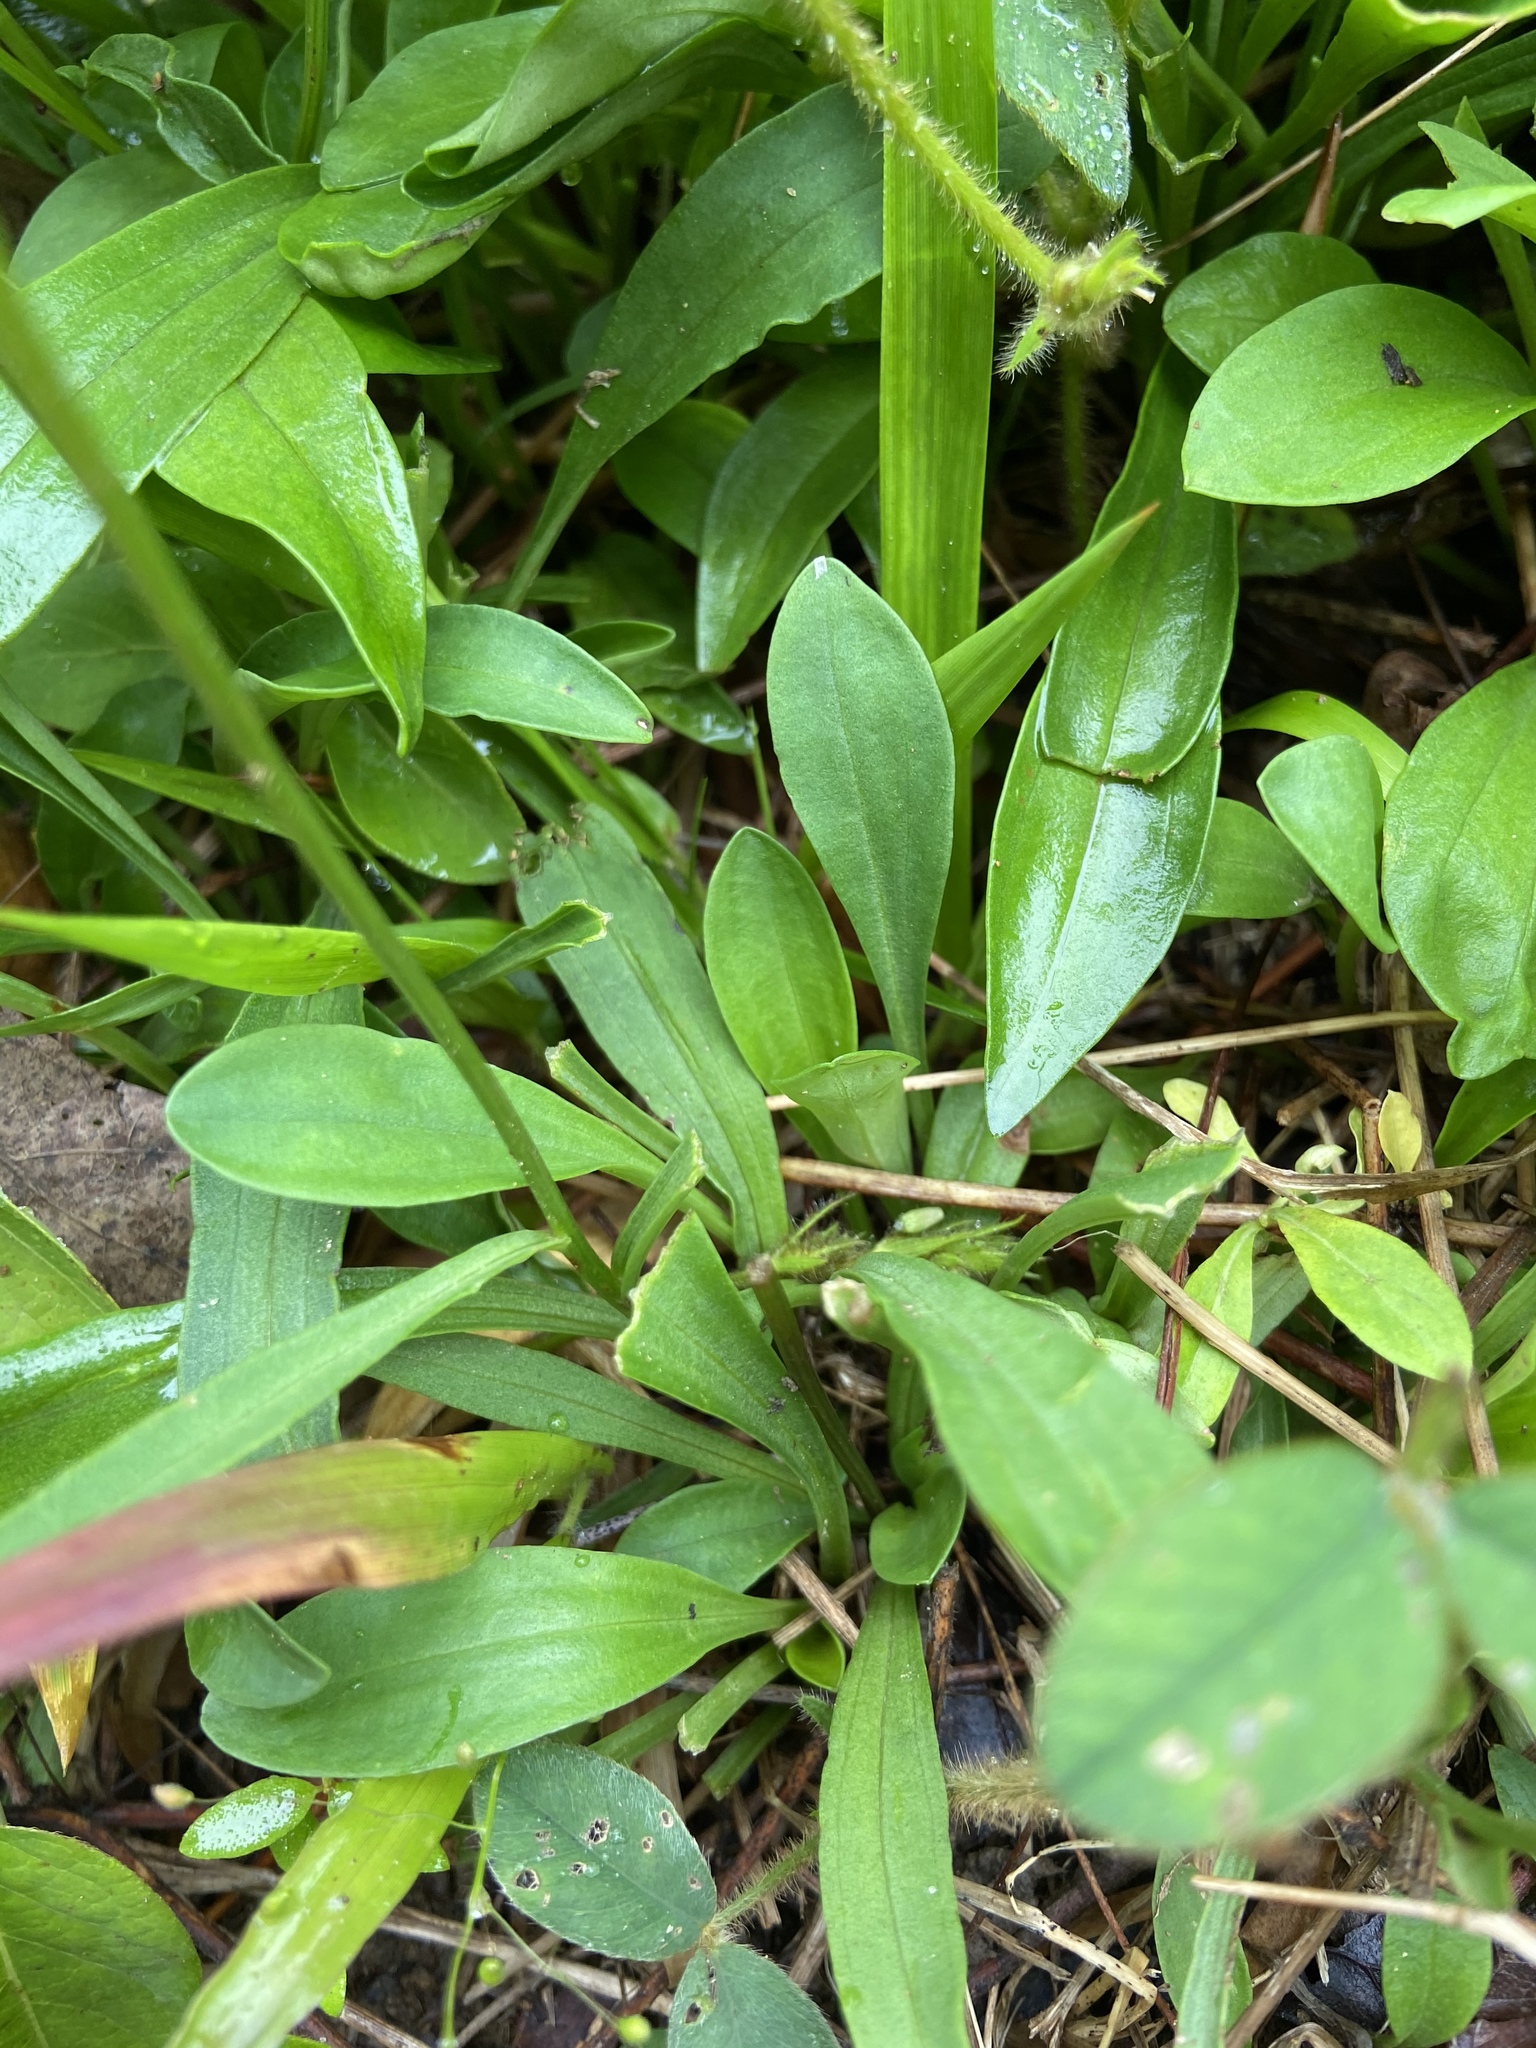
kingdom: Plantae
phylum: Tracheophyta
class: Magnoliopsida
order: Asterales
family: Asteraceae
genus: Marshallia
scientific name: Marshallia obovata
